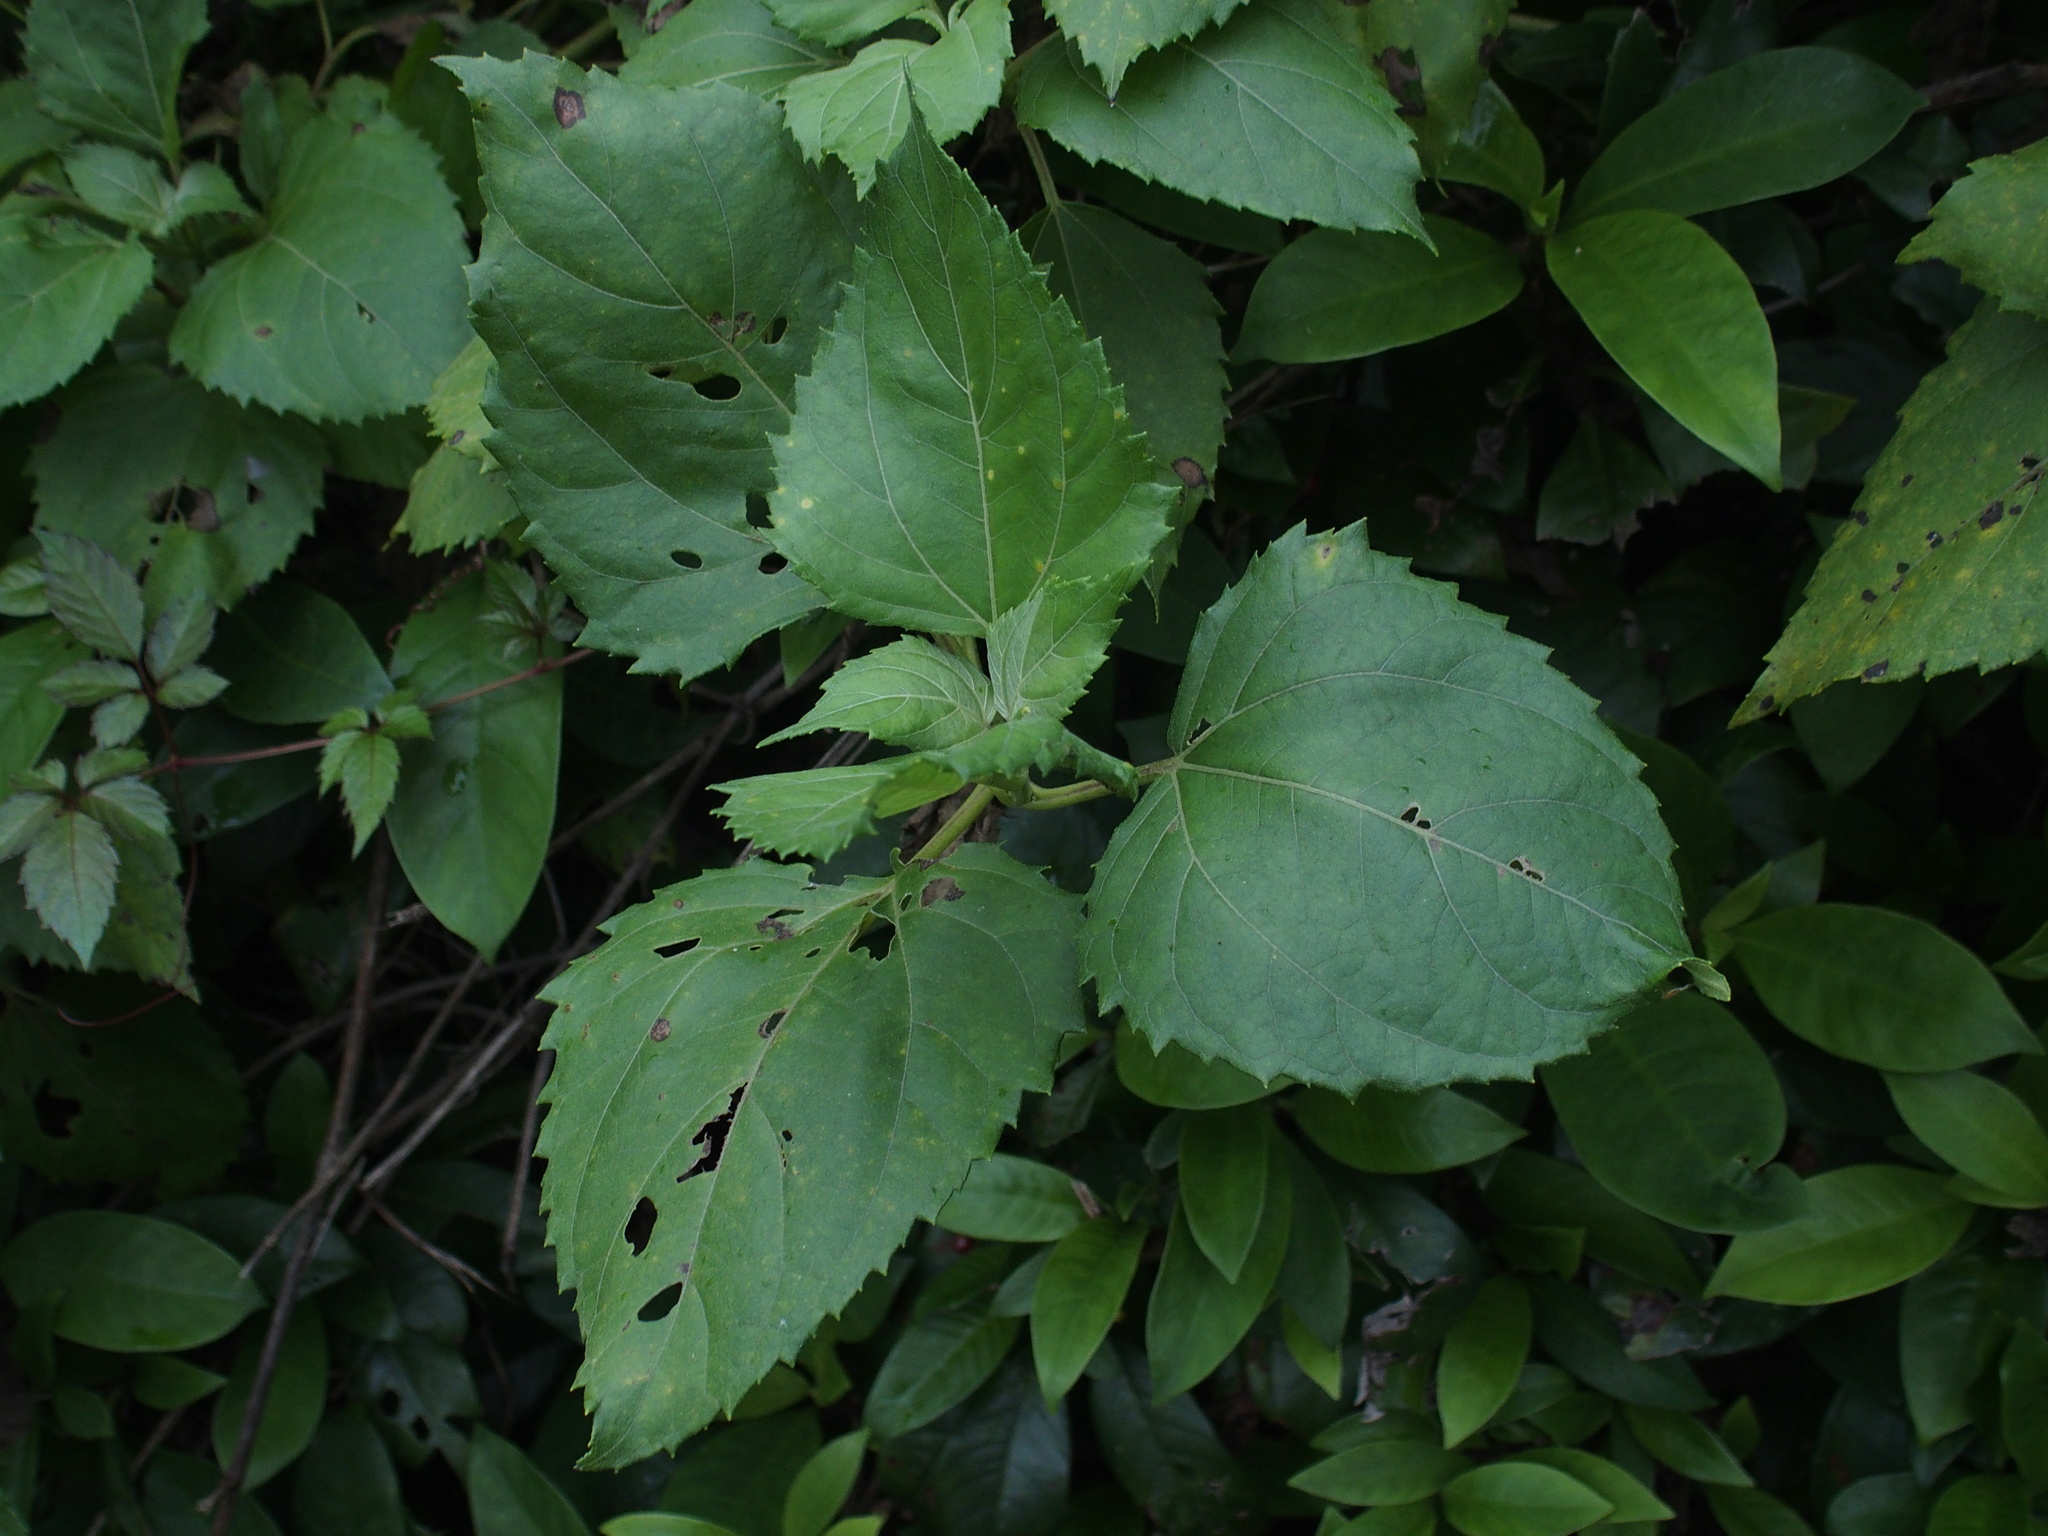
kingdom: Plantae
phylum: Tracheophyta
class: Magnoliopsida
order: Asterales
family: Asteraceae
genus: Wollastonia
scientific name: Wollastonia biflora
